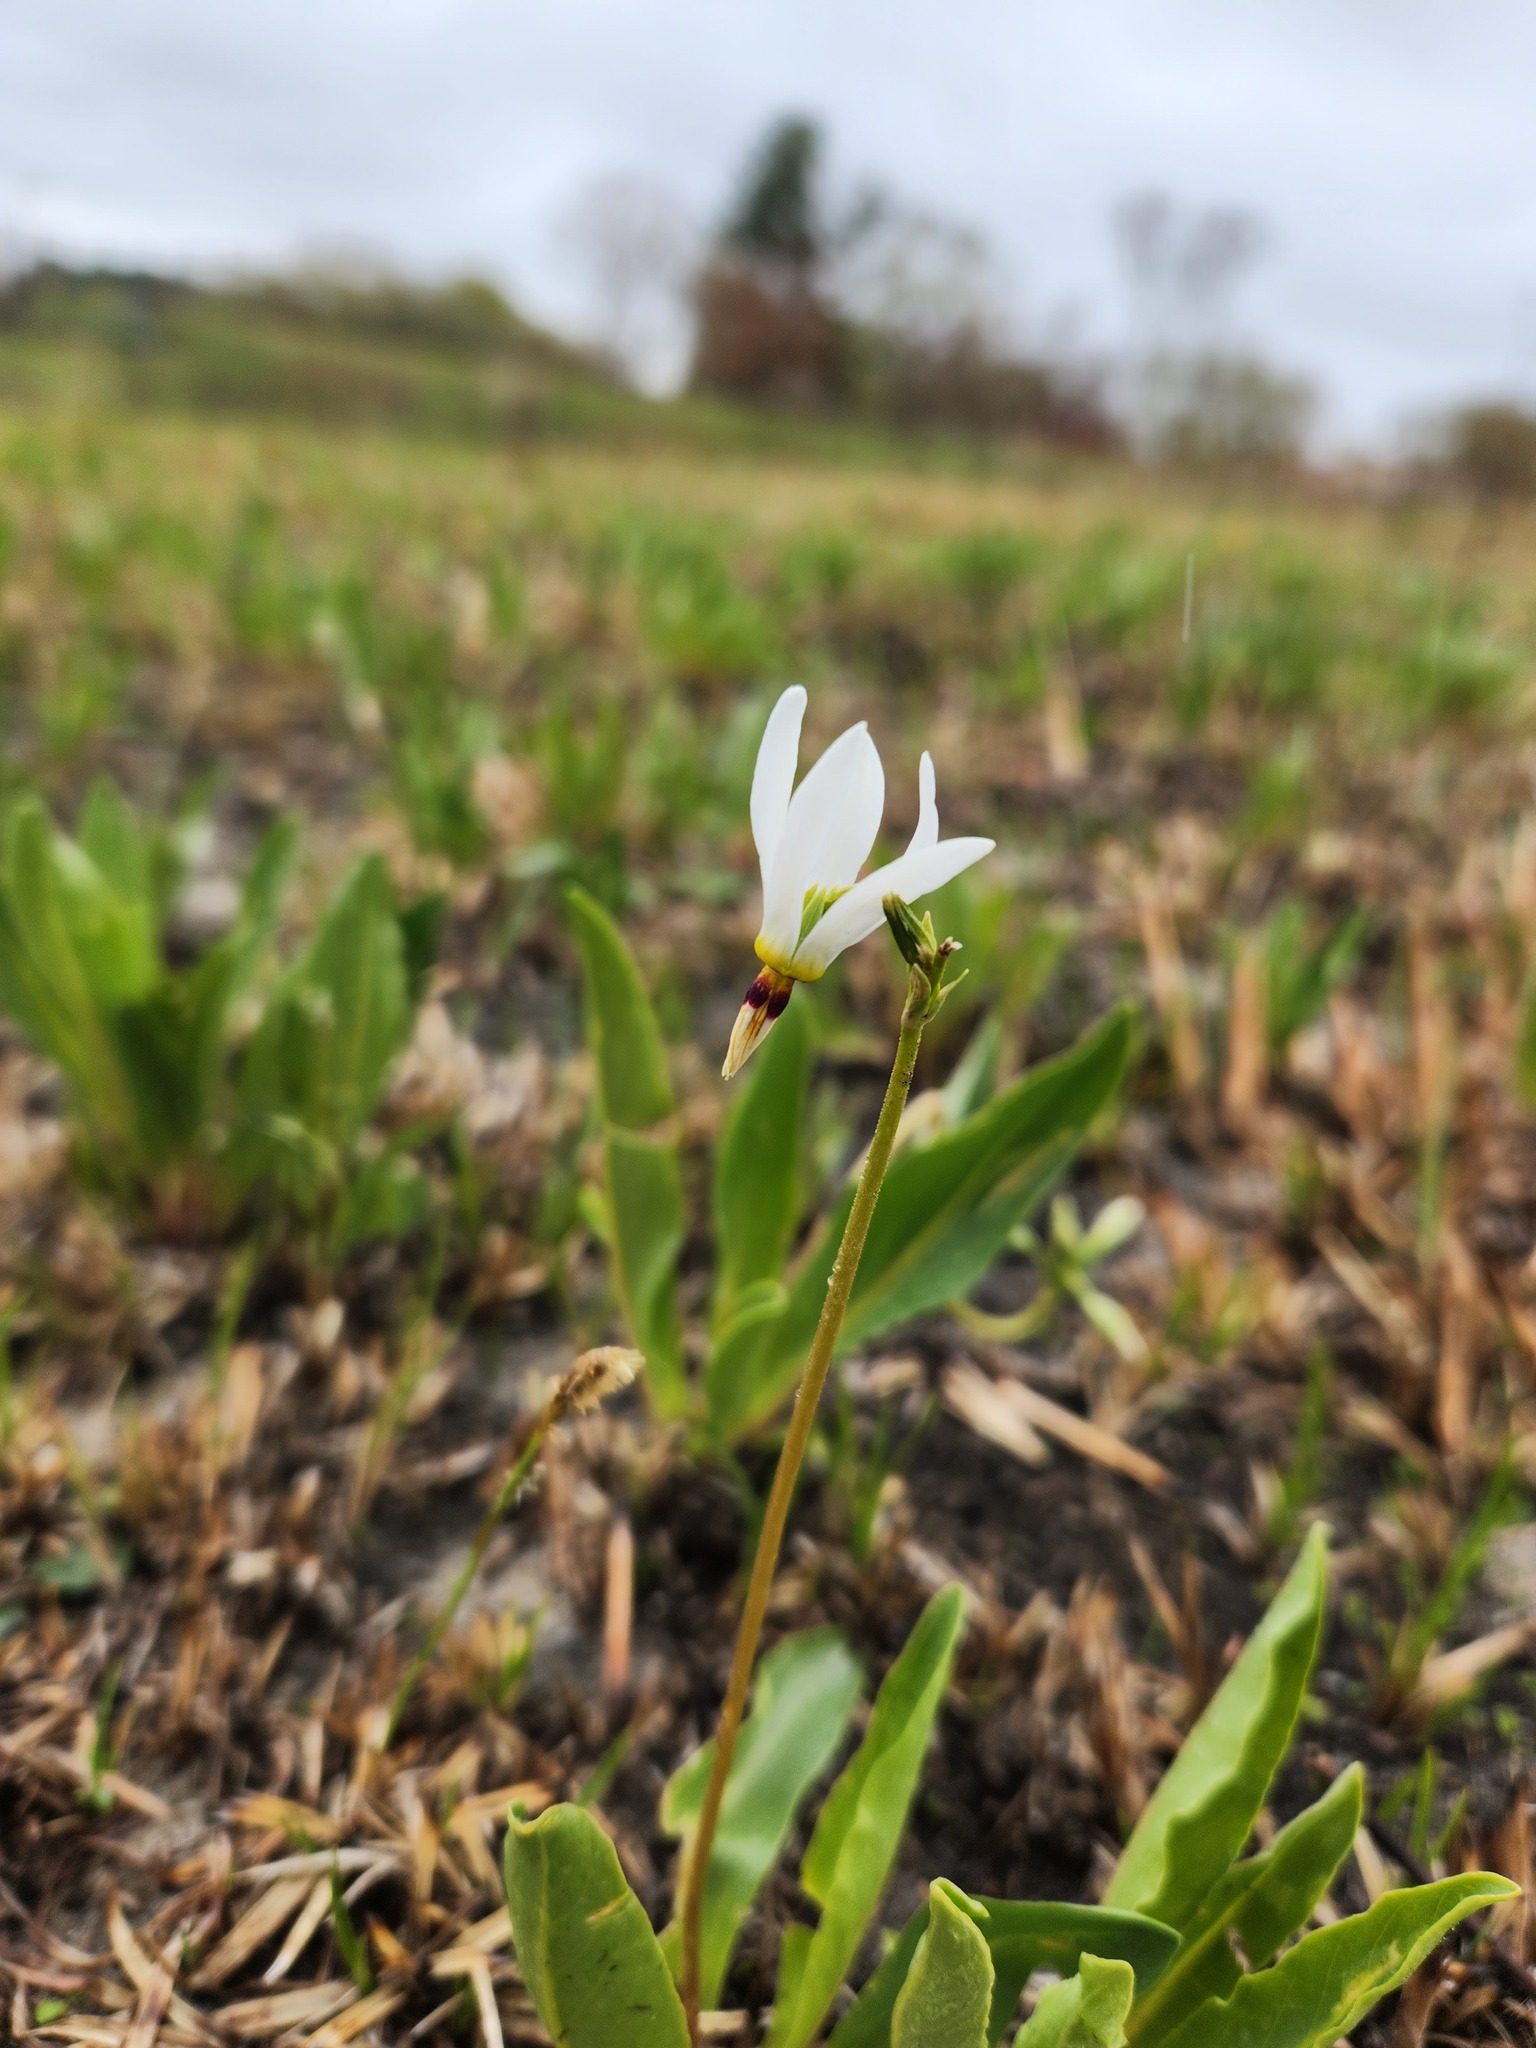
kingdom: Plantae
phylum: Tracheophyta
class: Magnoliopsida
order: Ericales
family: Primulaceae
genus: Dodecatheon
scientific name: Dodecatheon meadia
